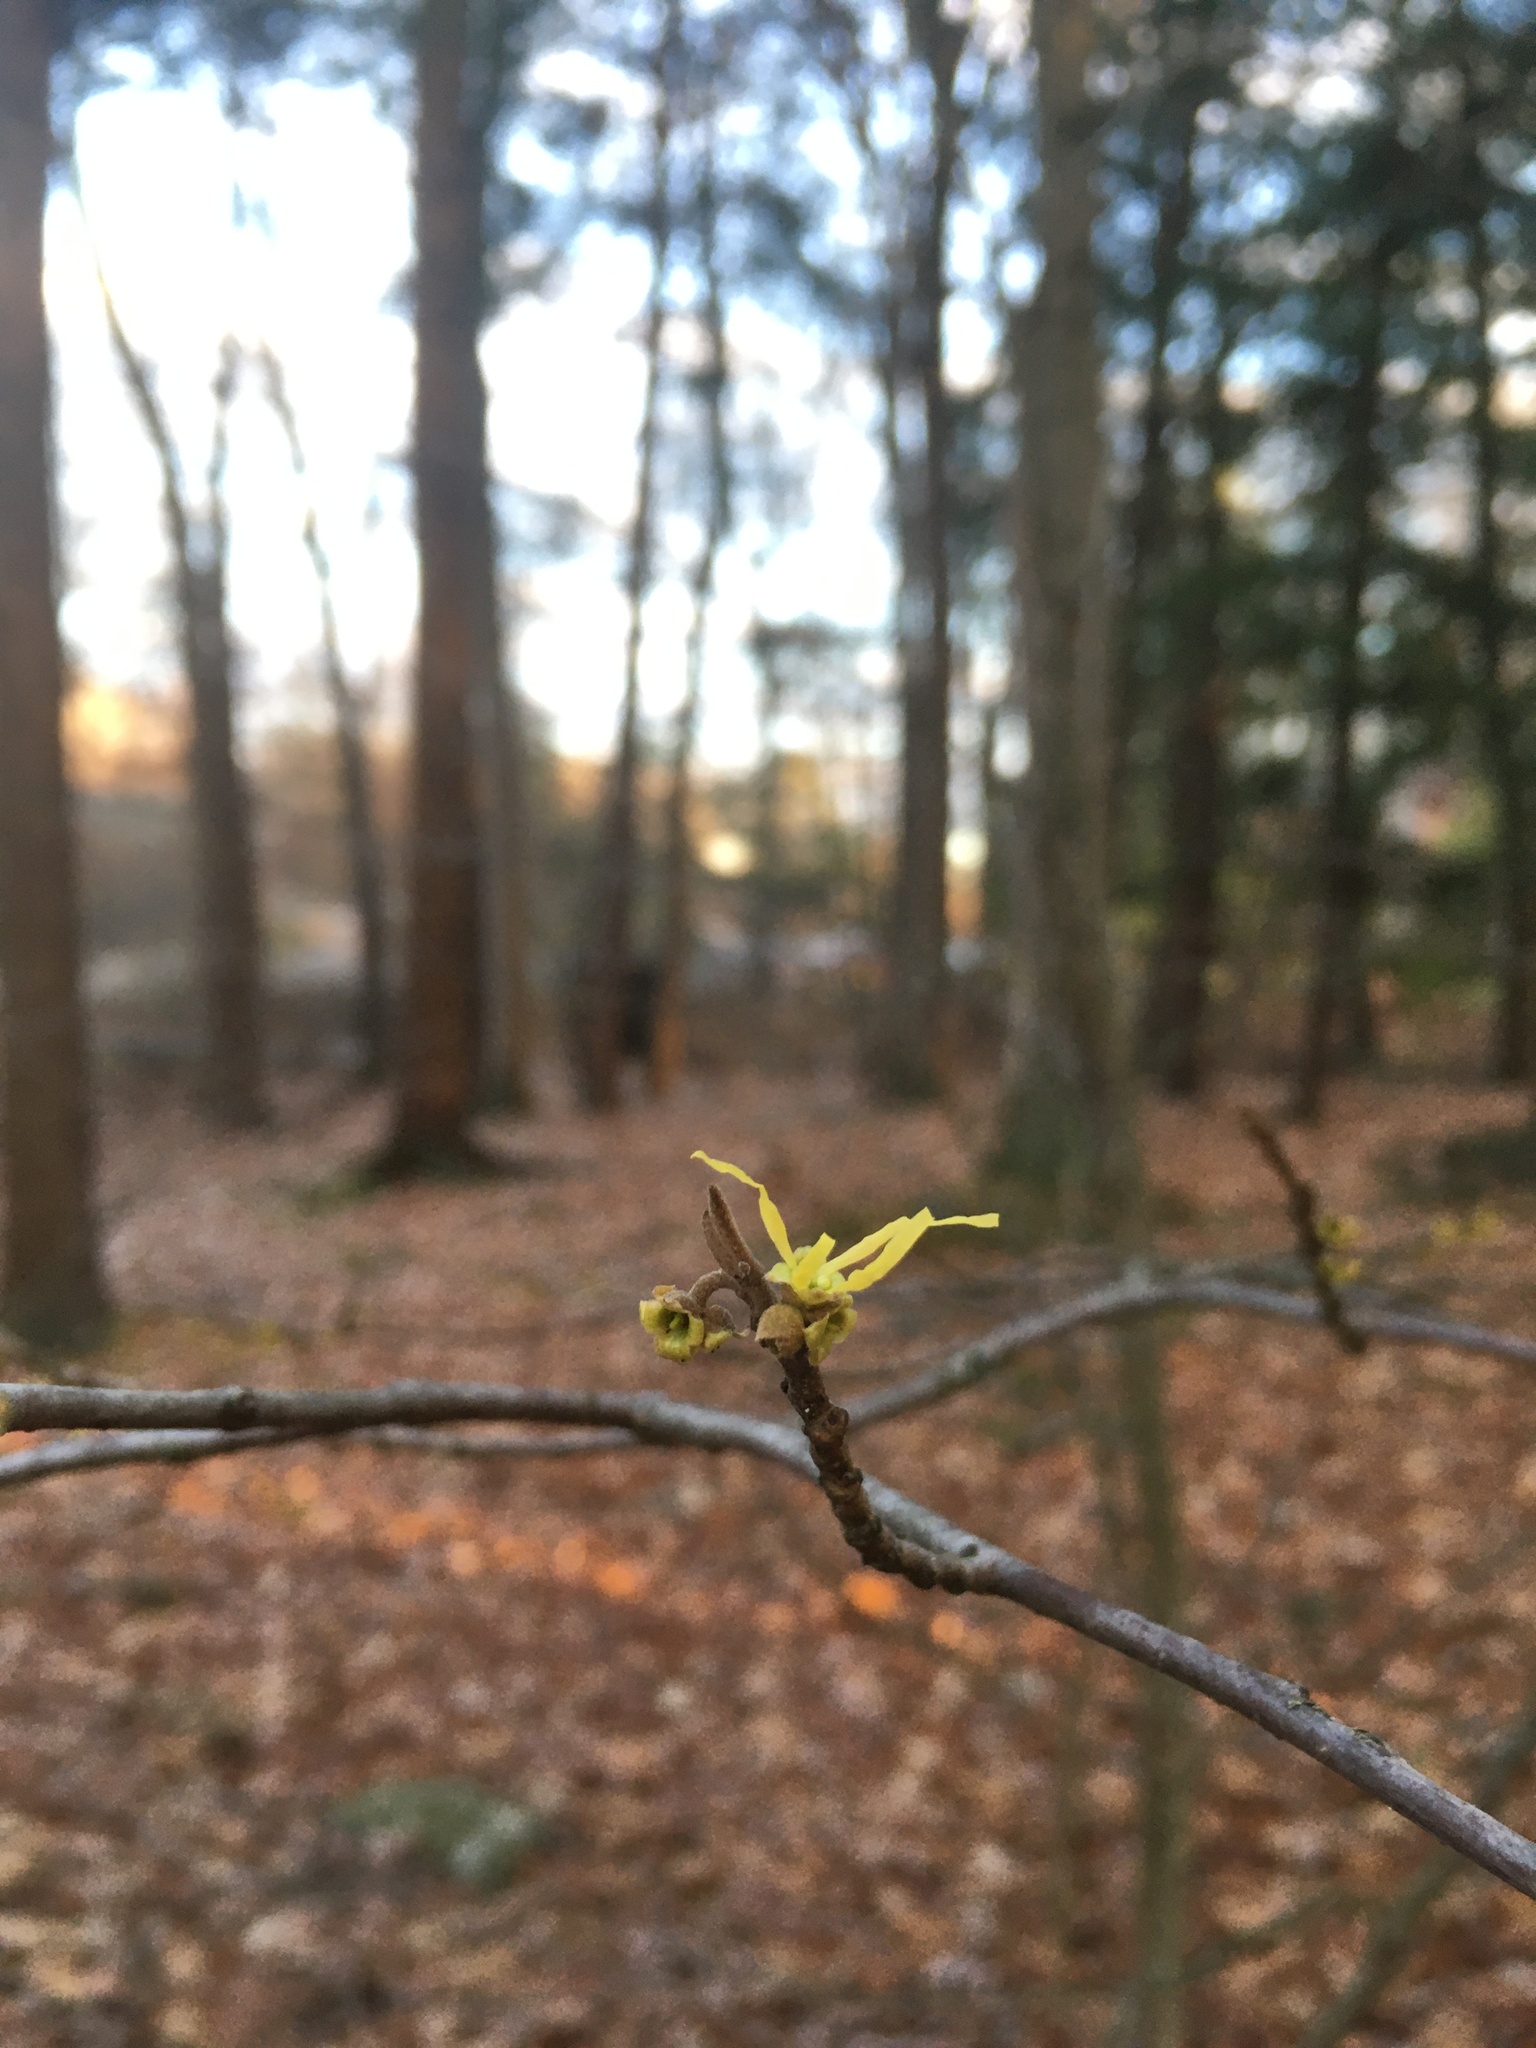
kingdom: Plantae
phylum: Tracheophyta
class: Magnoliopsida
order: Saxifragales
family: Hamamelidaceae
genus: Hamamelis
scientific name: Hamamelis virginiana
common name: Witch-hazel
